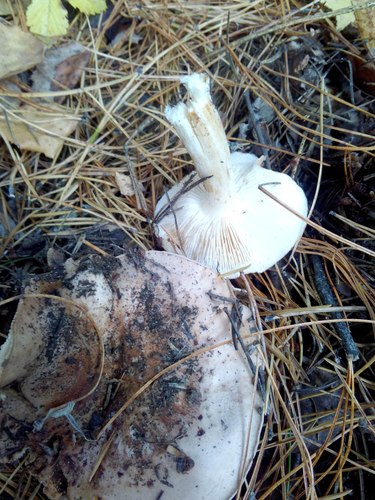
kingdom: Fungi
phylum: Basidiomycota
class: Agaricomycetes
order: Agaricales
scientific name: Agaricales
